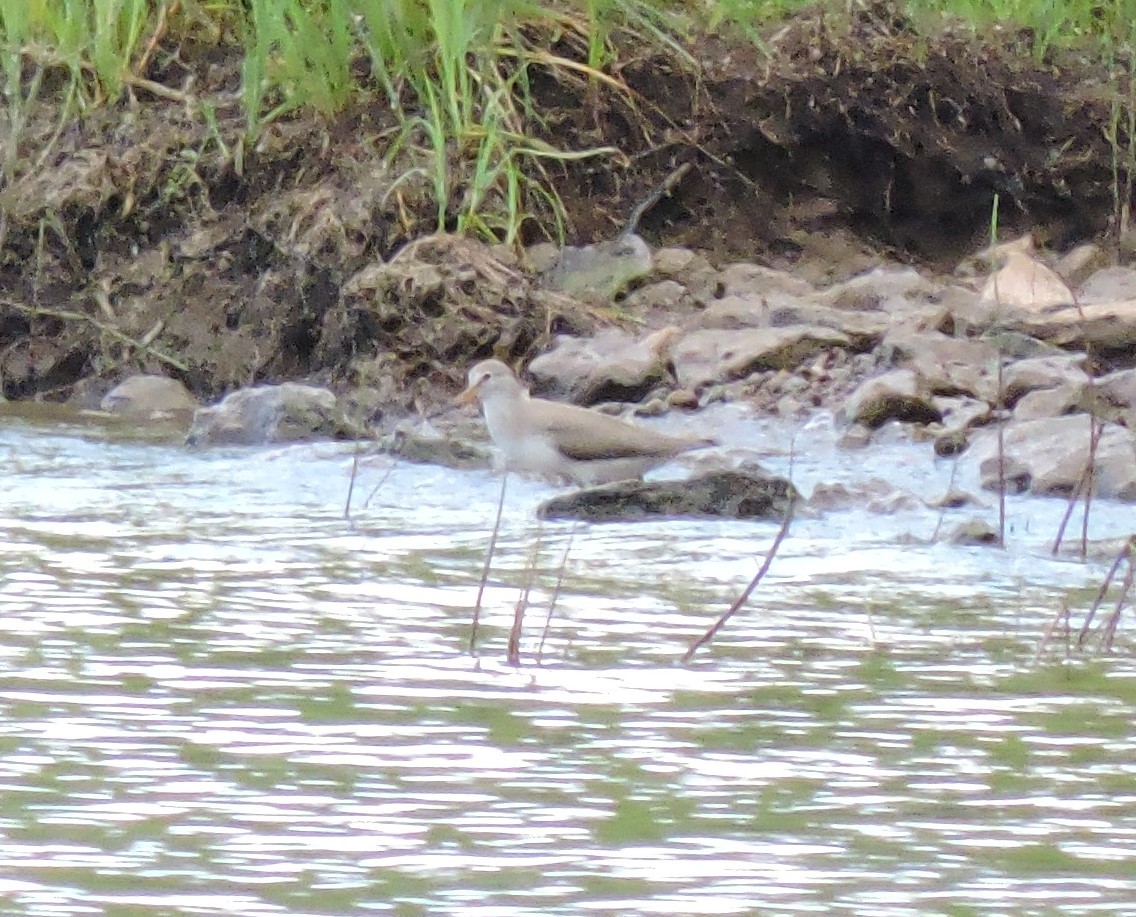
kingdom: Animalia
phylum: Chordata
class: Aves
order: Charadriiformes
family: Scolopacidae
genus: Xenus
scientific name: Xenus cinereus
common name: Terek sandpiper
